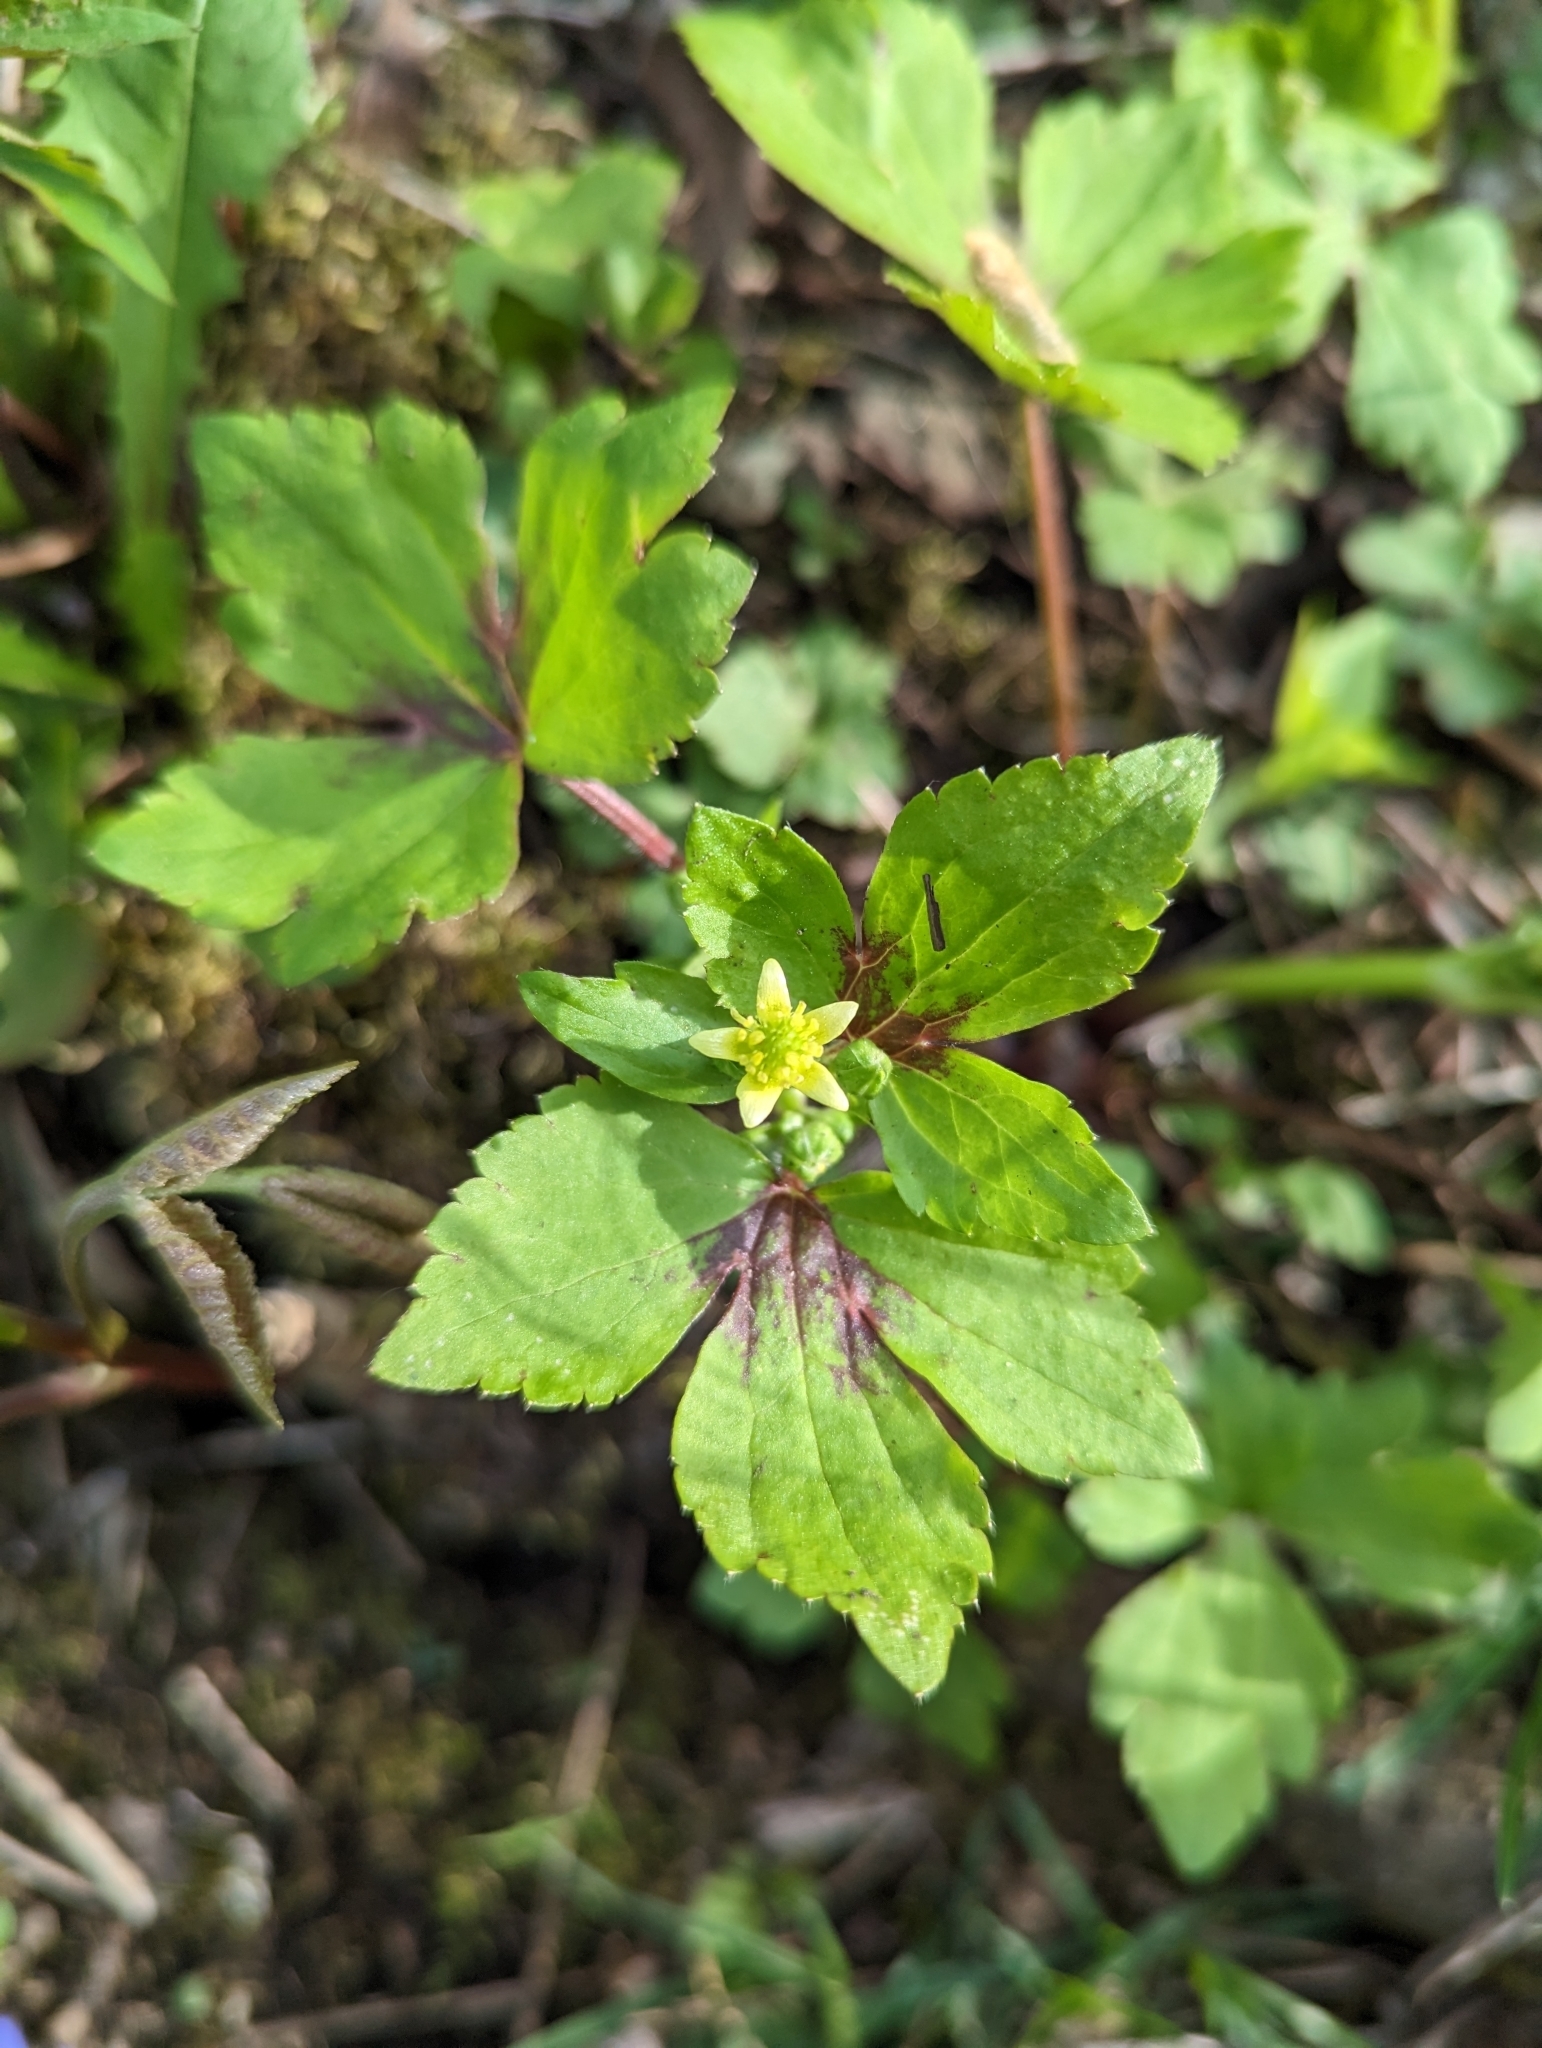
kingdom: Plantae
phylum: Tracheophyta
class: Magnoliopsida
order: Ranunculales
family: Ranunculaceae
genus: Ranunculus
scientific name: Ranunculus recurvatus
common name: Blisterwort
